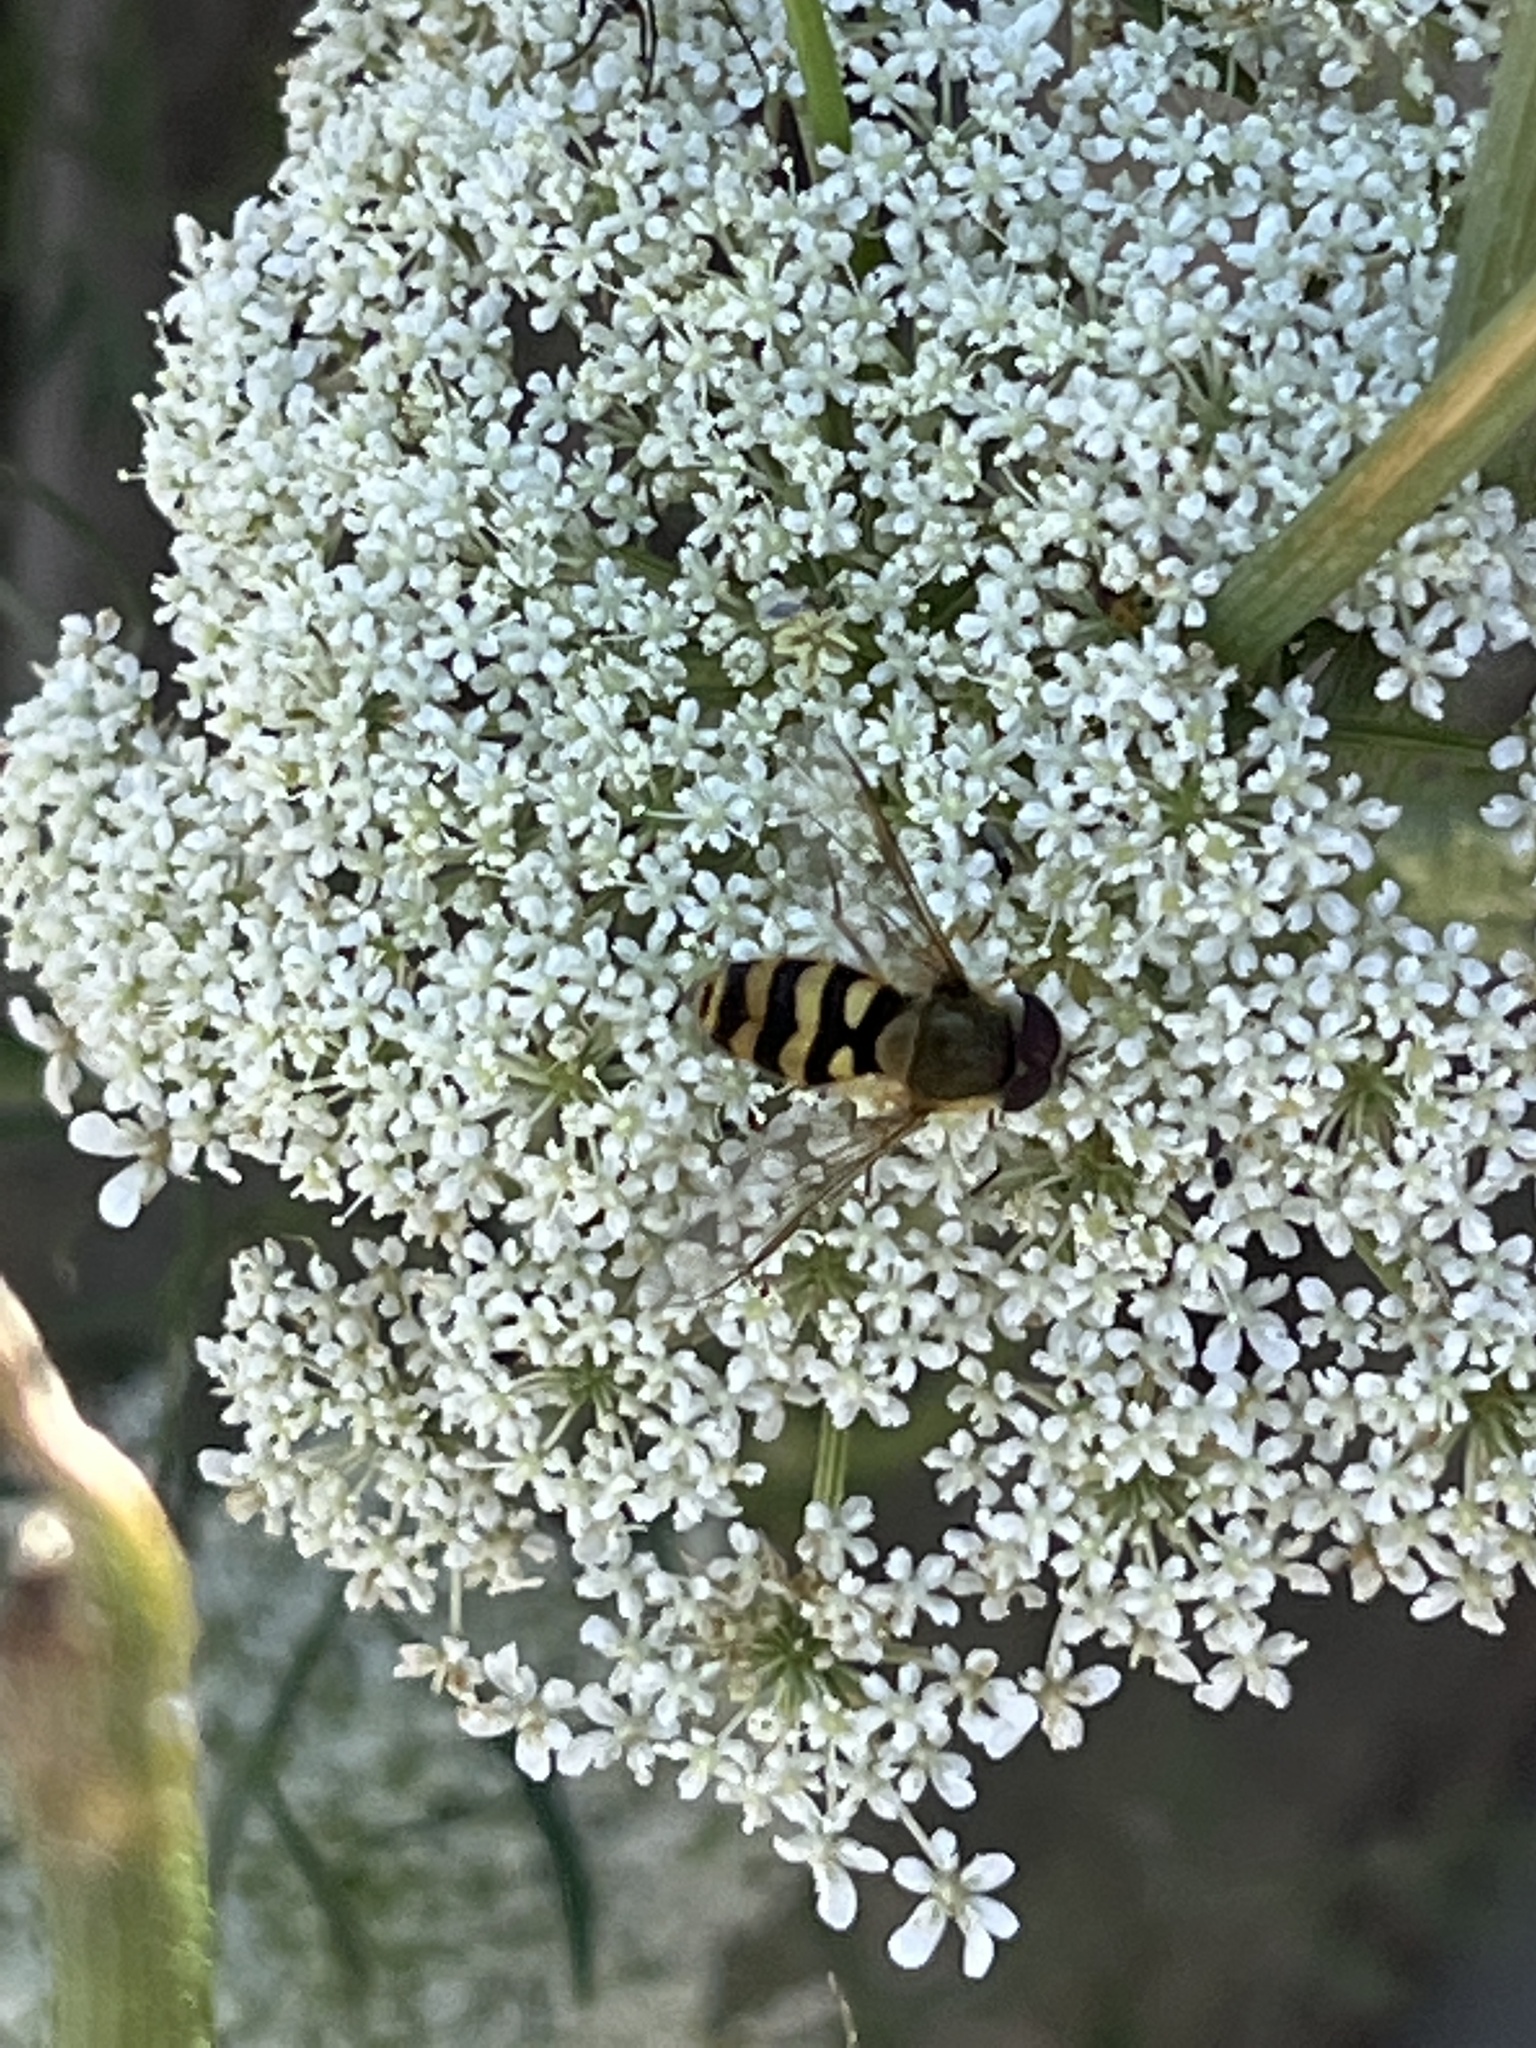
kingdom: Animalia
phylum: Arthropoda
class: Insecta
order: Diptera
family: Syrphidae
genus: Syrphus
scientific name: Syrphus
